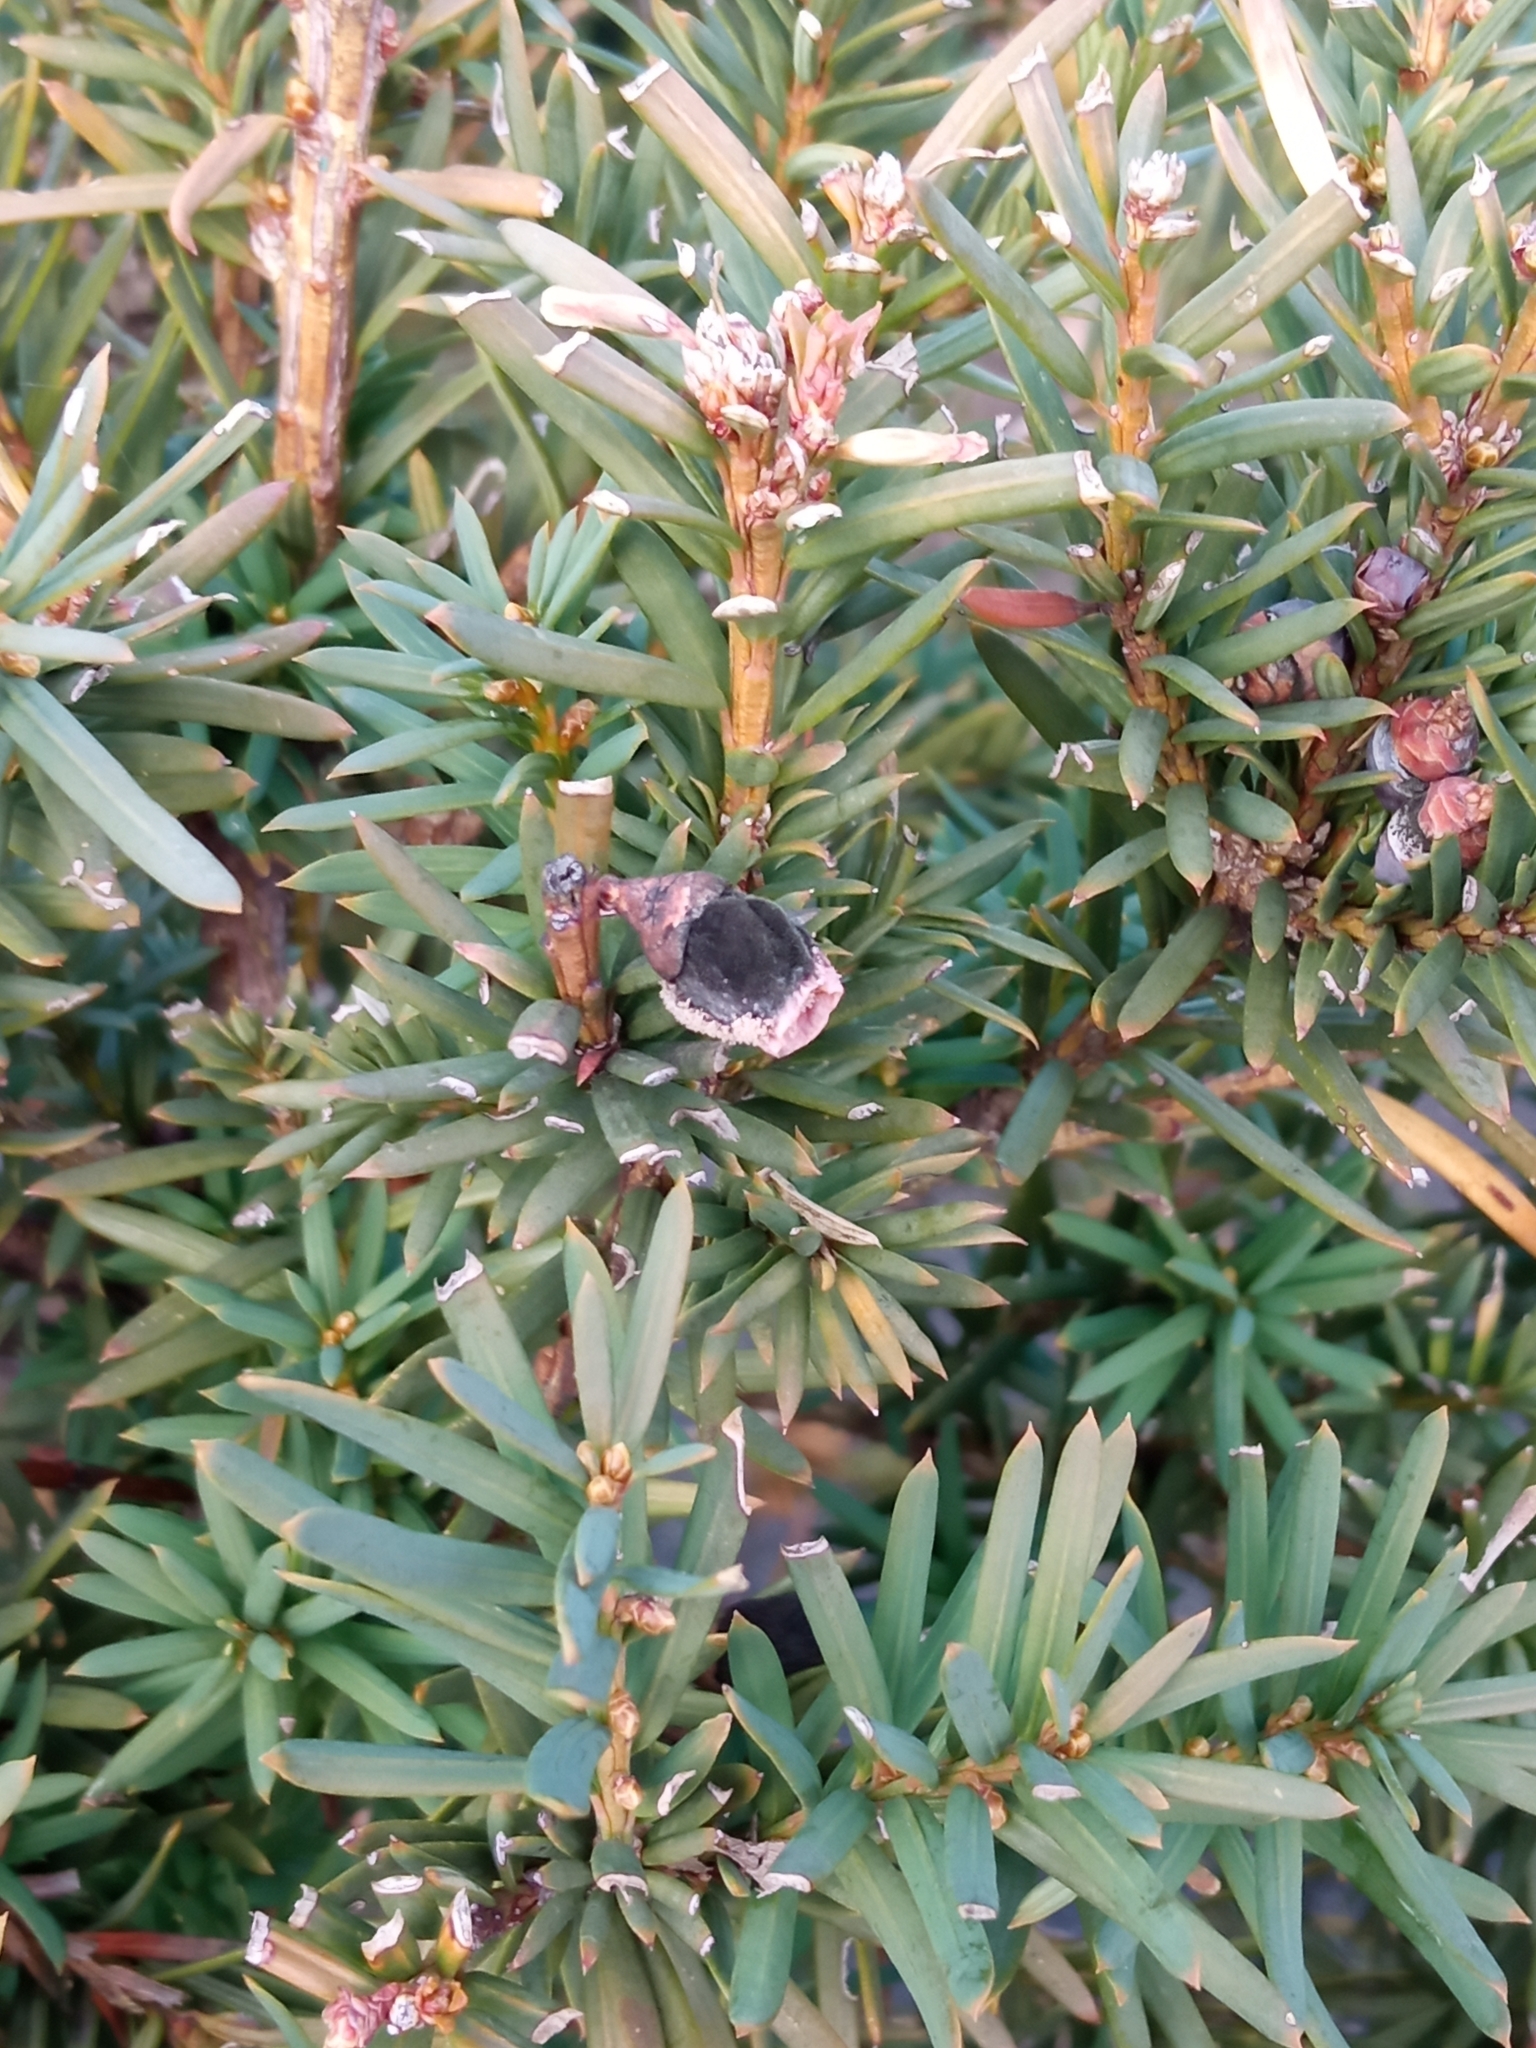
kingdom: Plantae
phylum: Tracheophyta
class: Pinopsida
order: Pinales
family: Taxaceae
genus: Taxus
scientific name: Taxus baccata
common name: Yew
